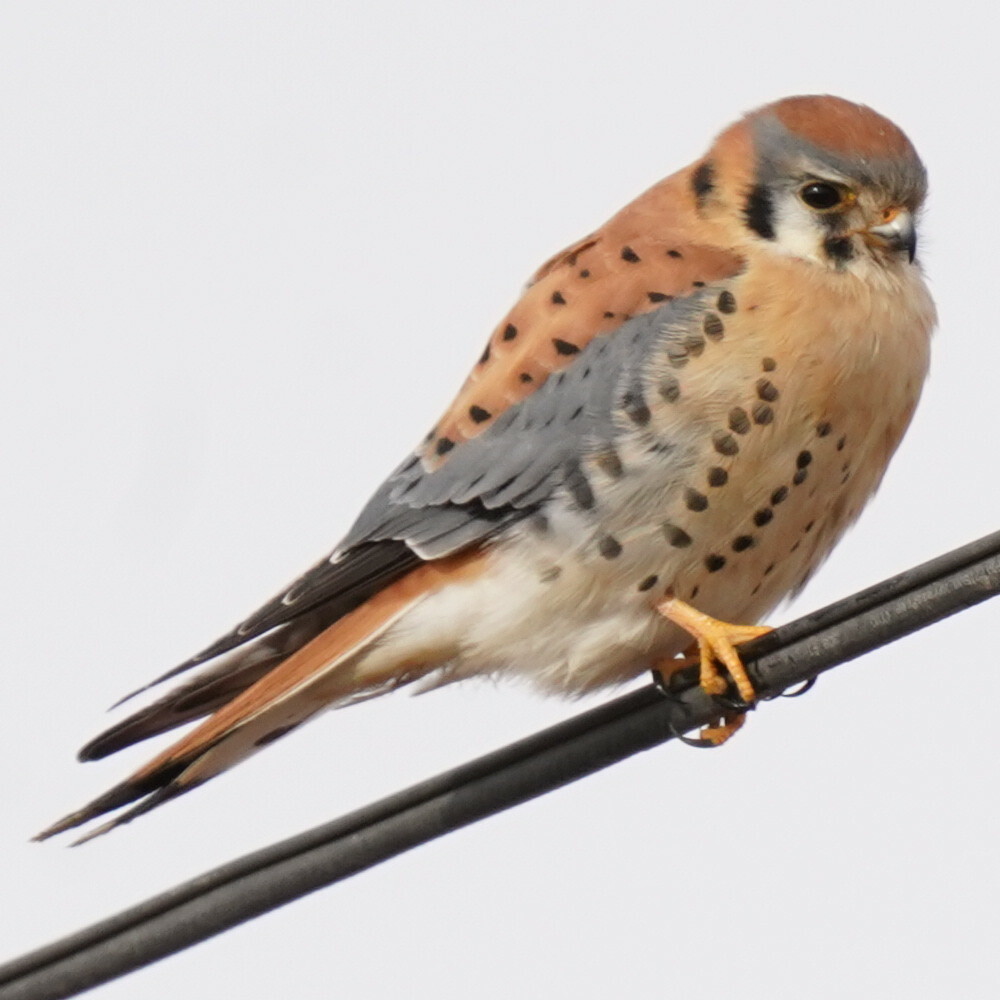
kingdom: Animalia
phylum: Chordata
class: Aves
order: Falconiformes
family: Falconidae
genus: Falco
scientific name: Falco sparverius
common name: American kestrel
